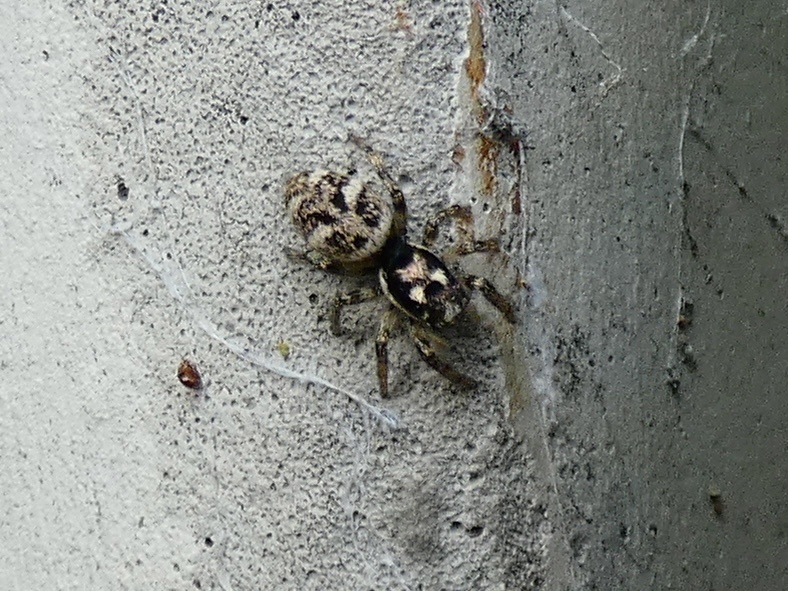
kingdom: Animalia
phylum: Arthropoda
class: Arachnida
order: Araneae
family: Salticidae
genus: Salticus
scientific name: Salticus scenicus
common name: Zebra jumper
